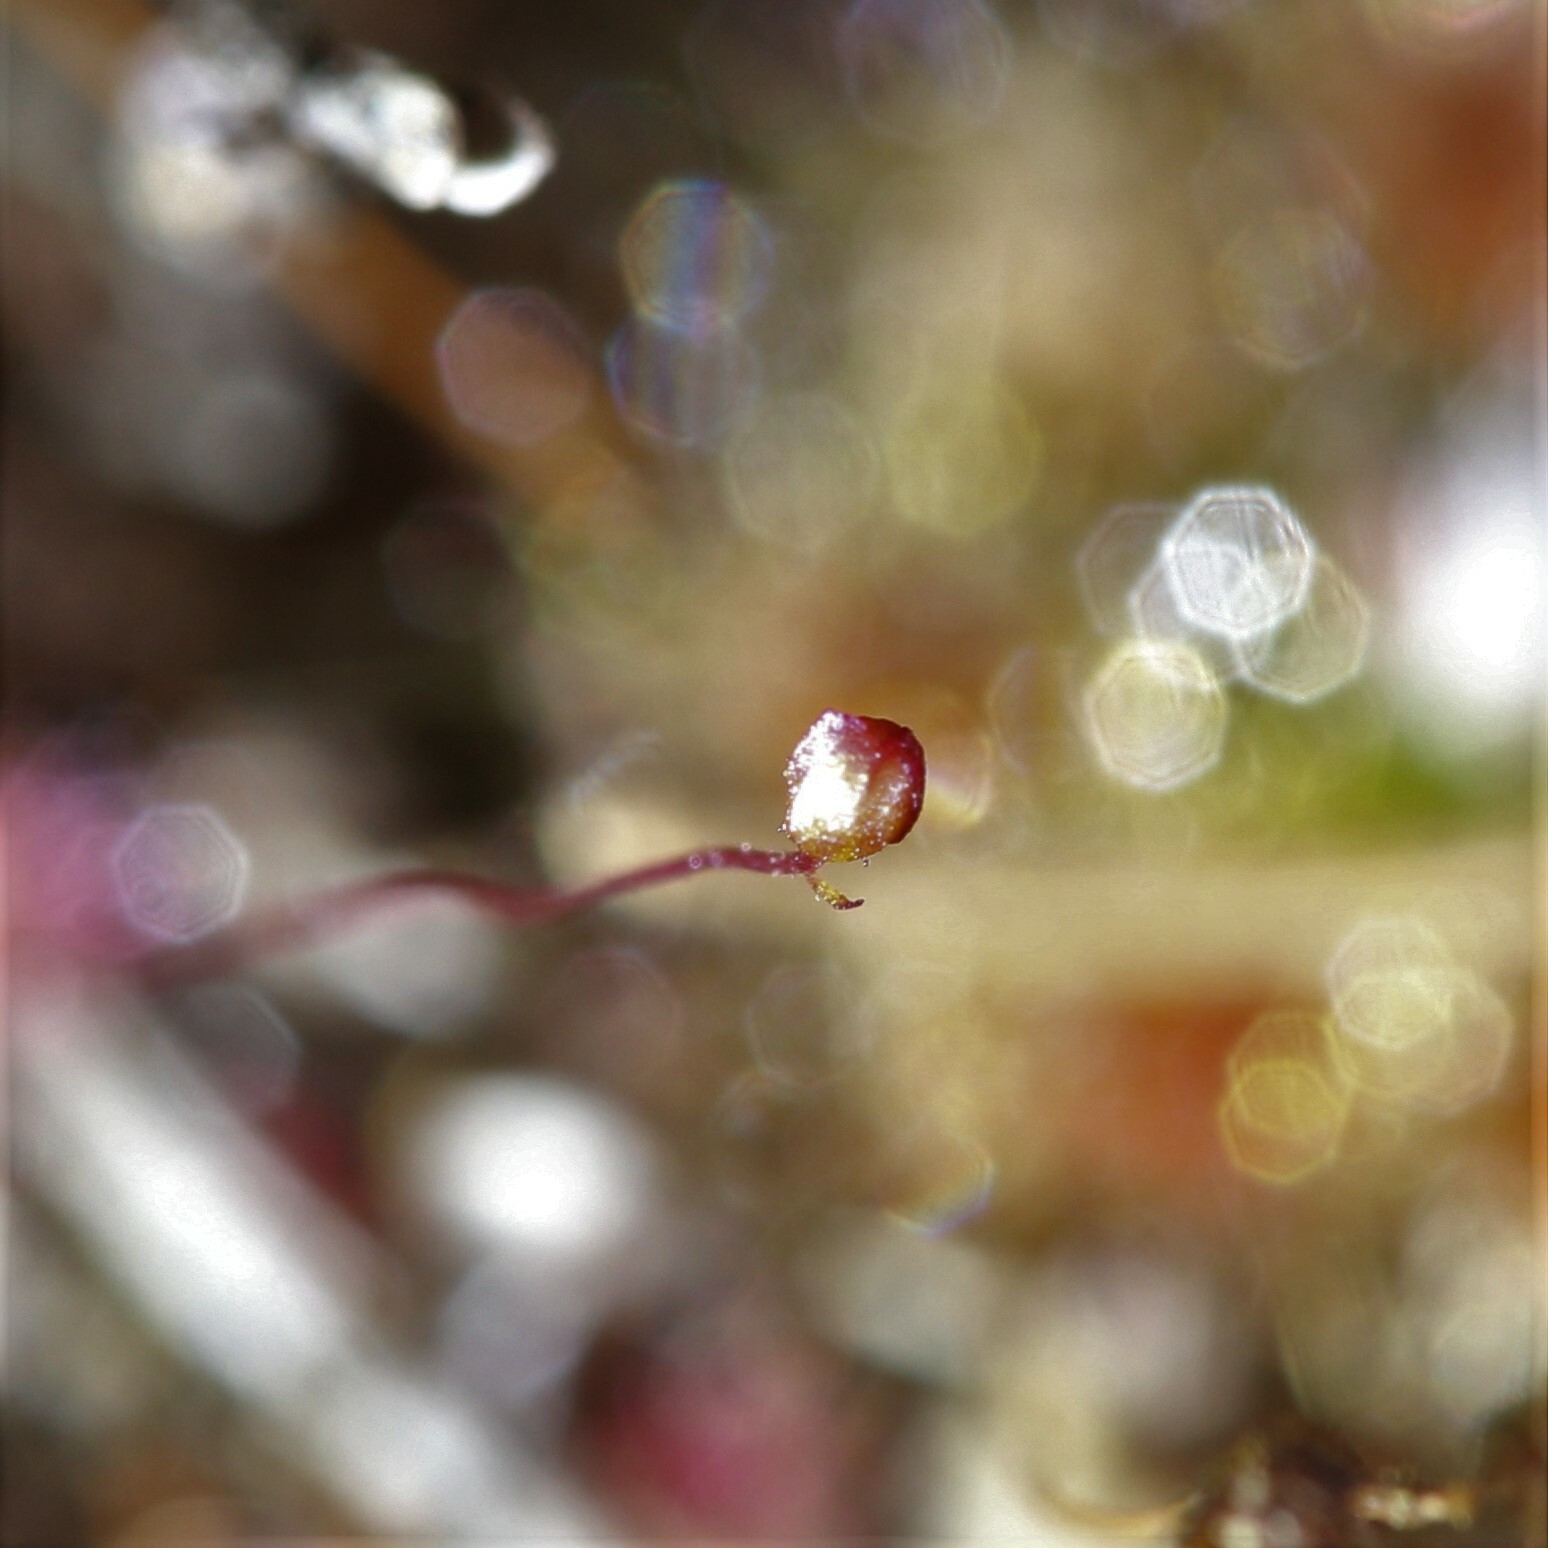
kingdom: Plantae
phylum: Tracheophyta
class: Magnoliopsida
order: Caryophyllales
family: Droseraceae
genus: Drosera
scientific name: Drosera occidentalis
